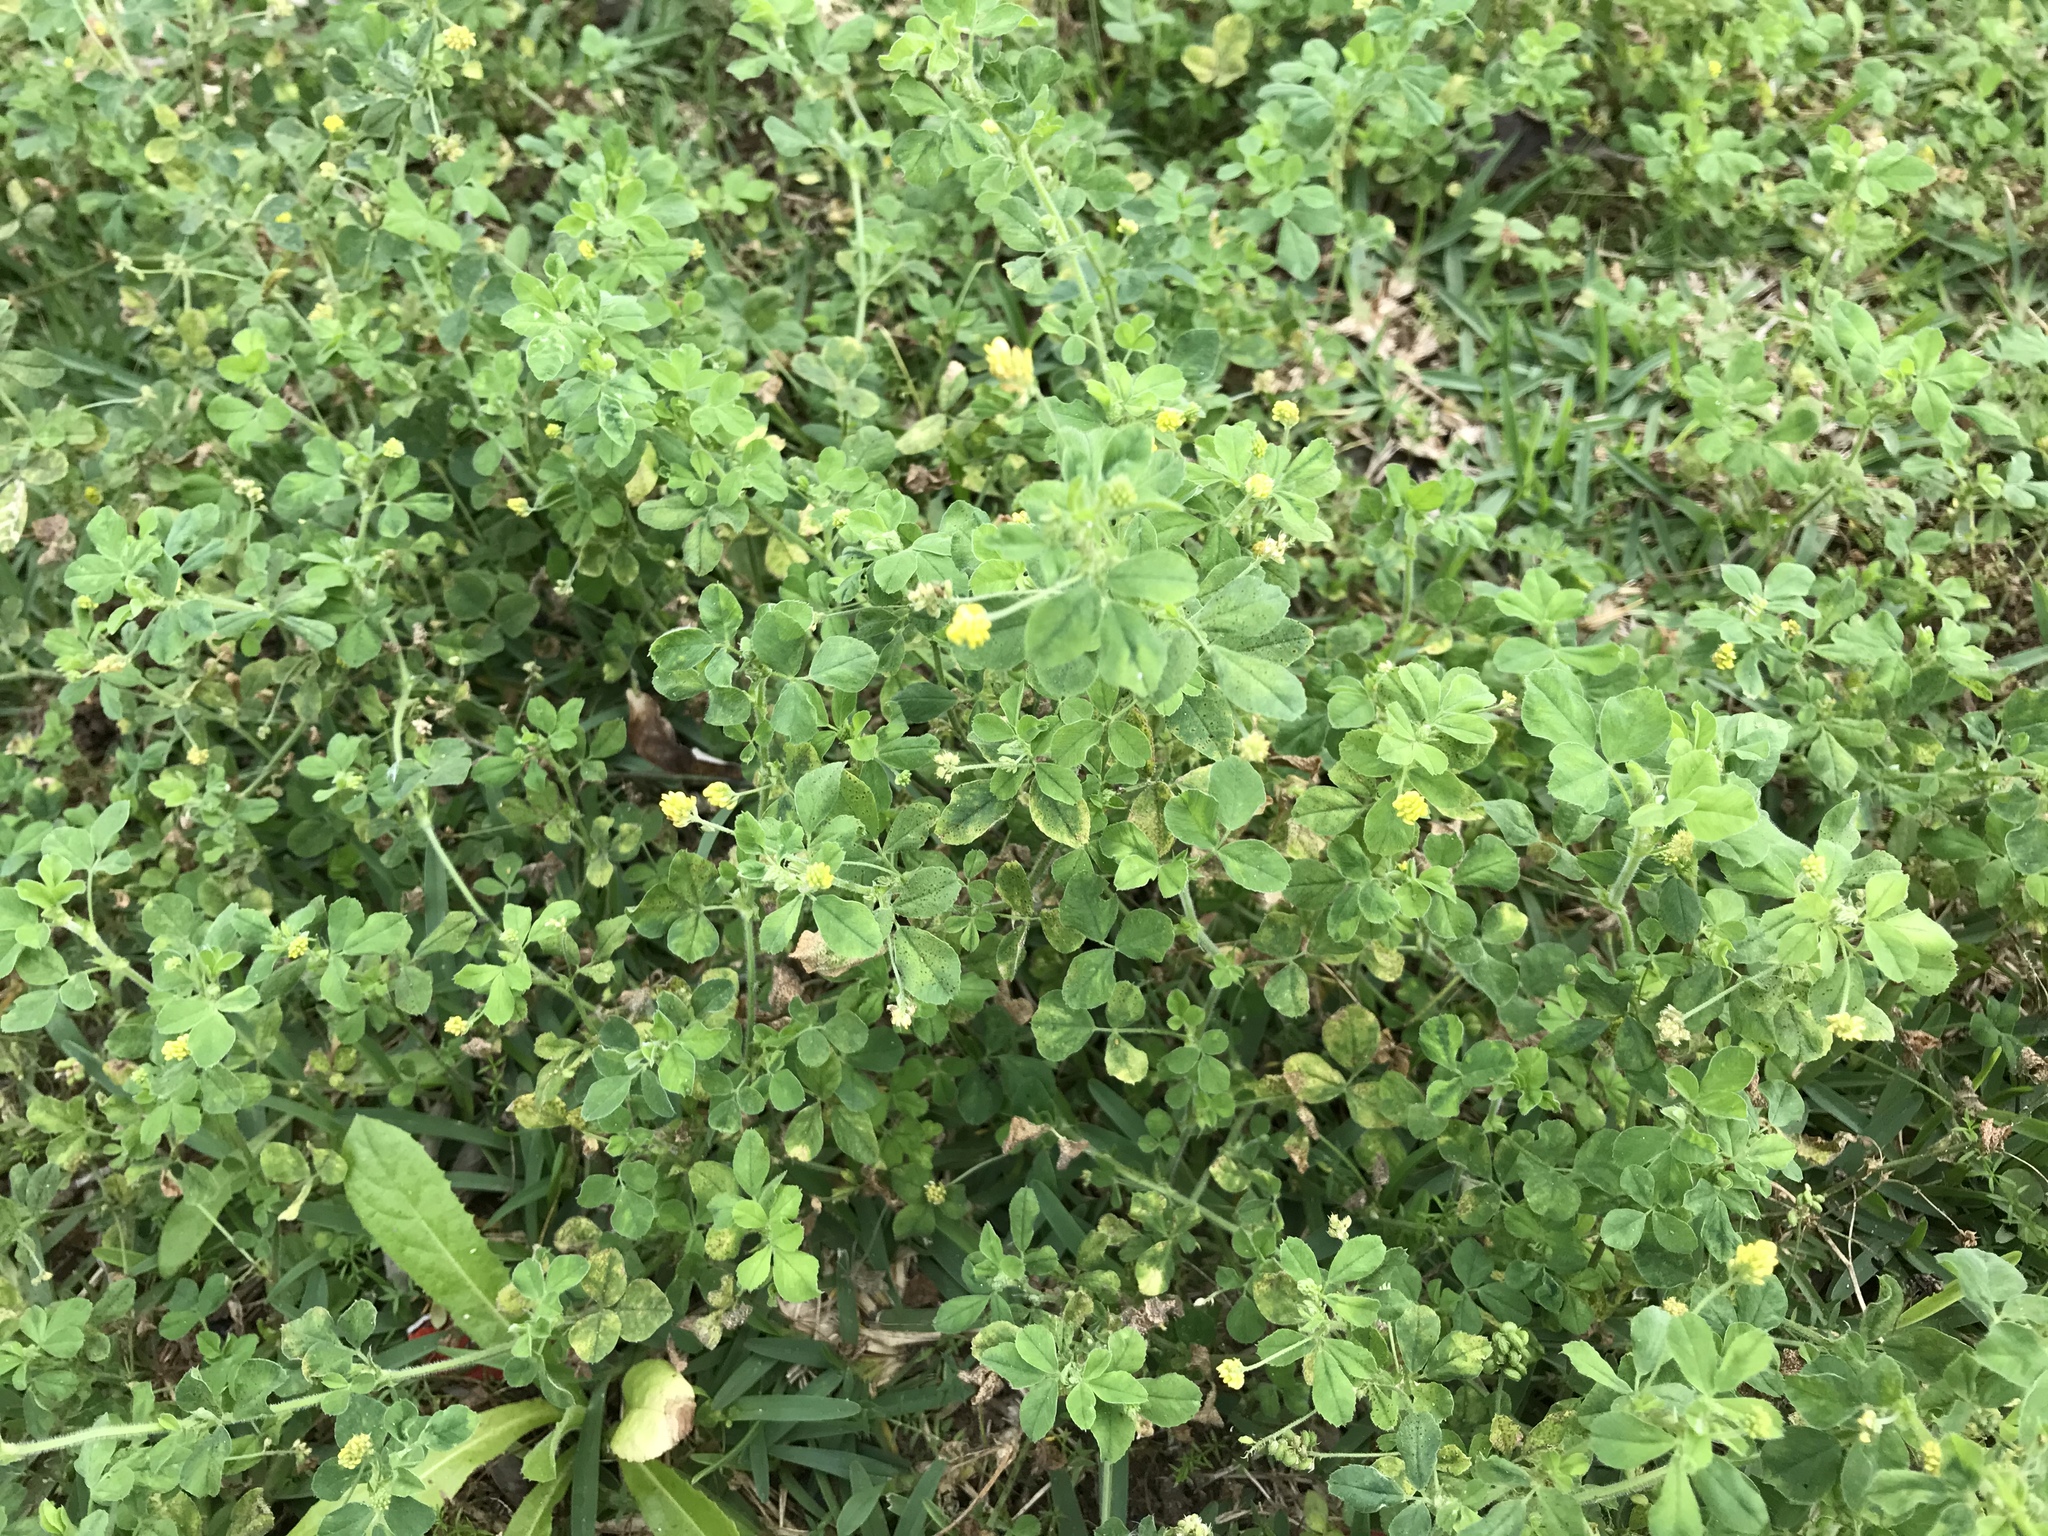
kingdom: Plantae
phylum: Tracheophyta
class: Magnoliopsida
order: Fabales
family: Fabaceae
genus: Medicago
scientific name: Medicago lupulina
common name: Black medick
